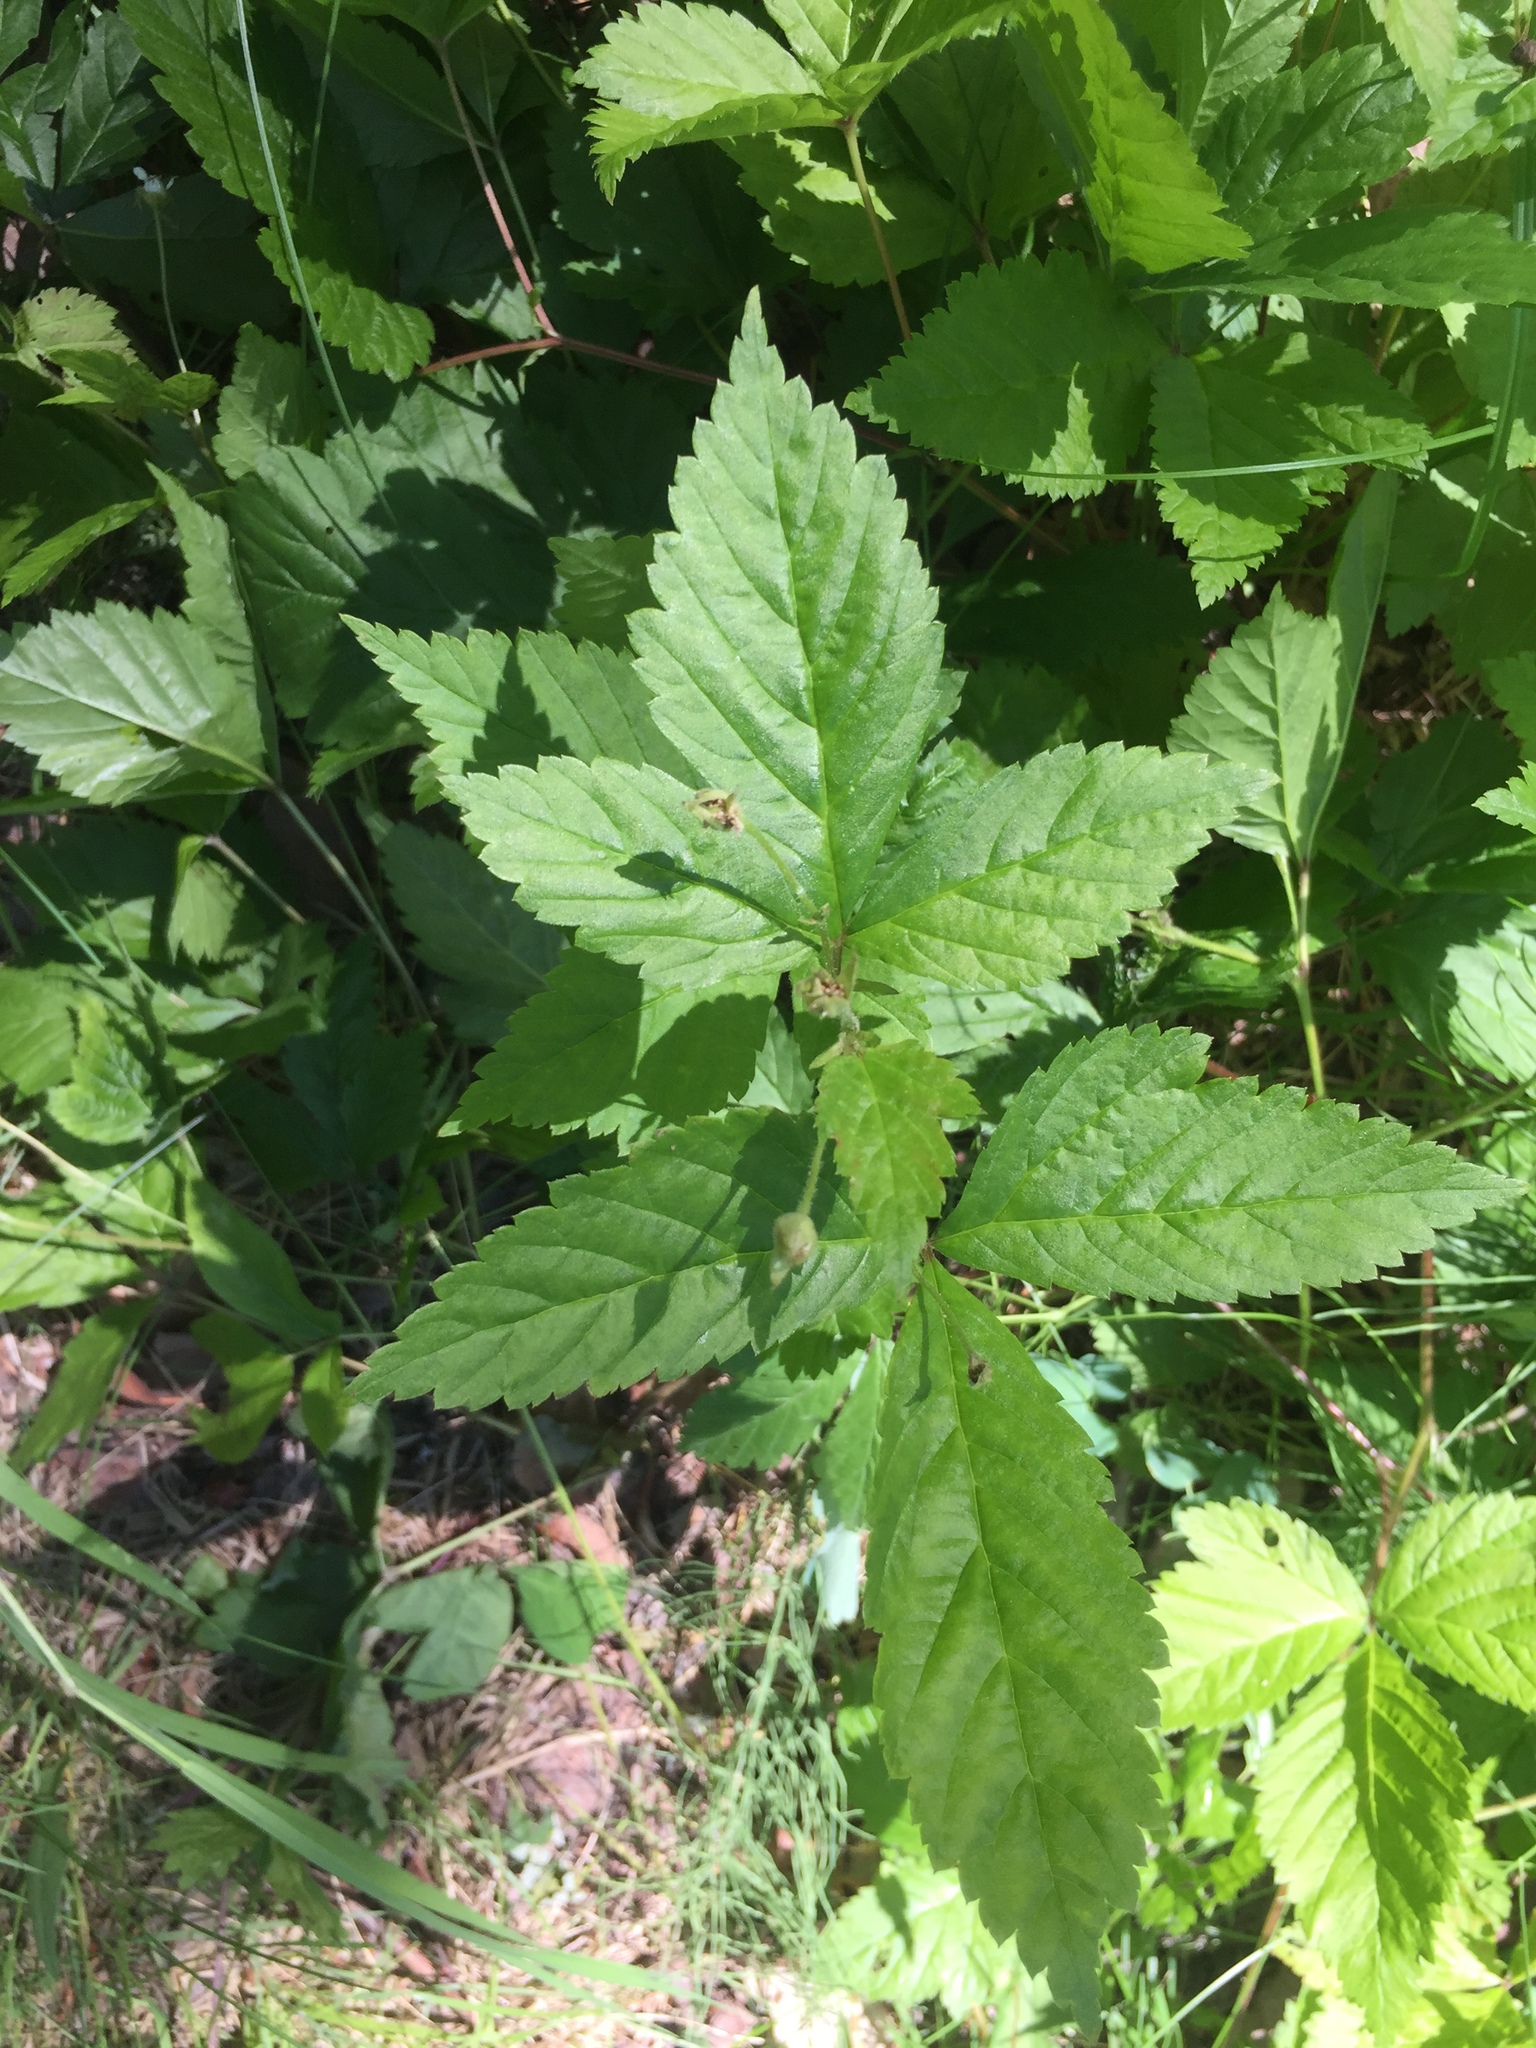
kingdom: Plantae
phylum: Tracheophyta
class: Magnoliopsida
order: Rosales
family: Rosaceae
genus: Rubus
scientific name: Rubus pubescens
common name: Dwarf raspberry
